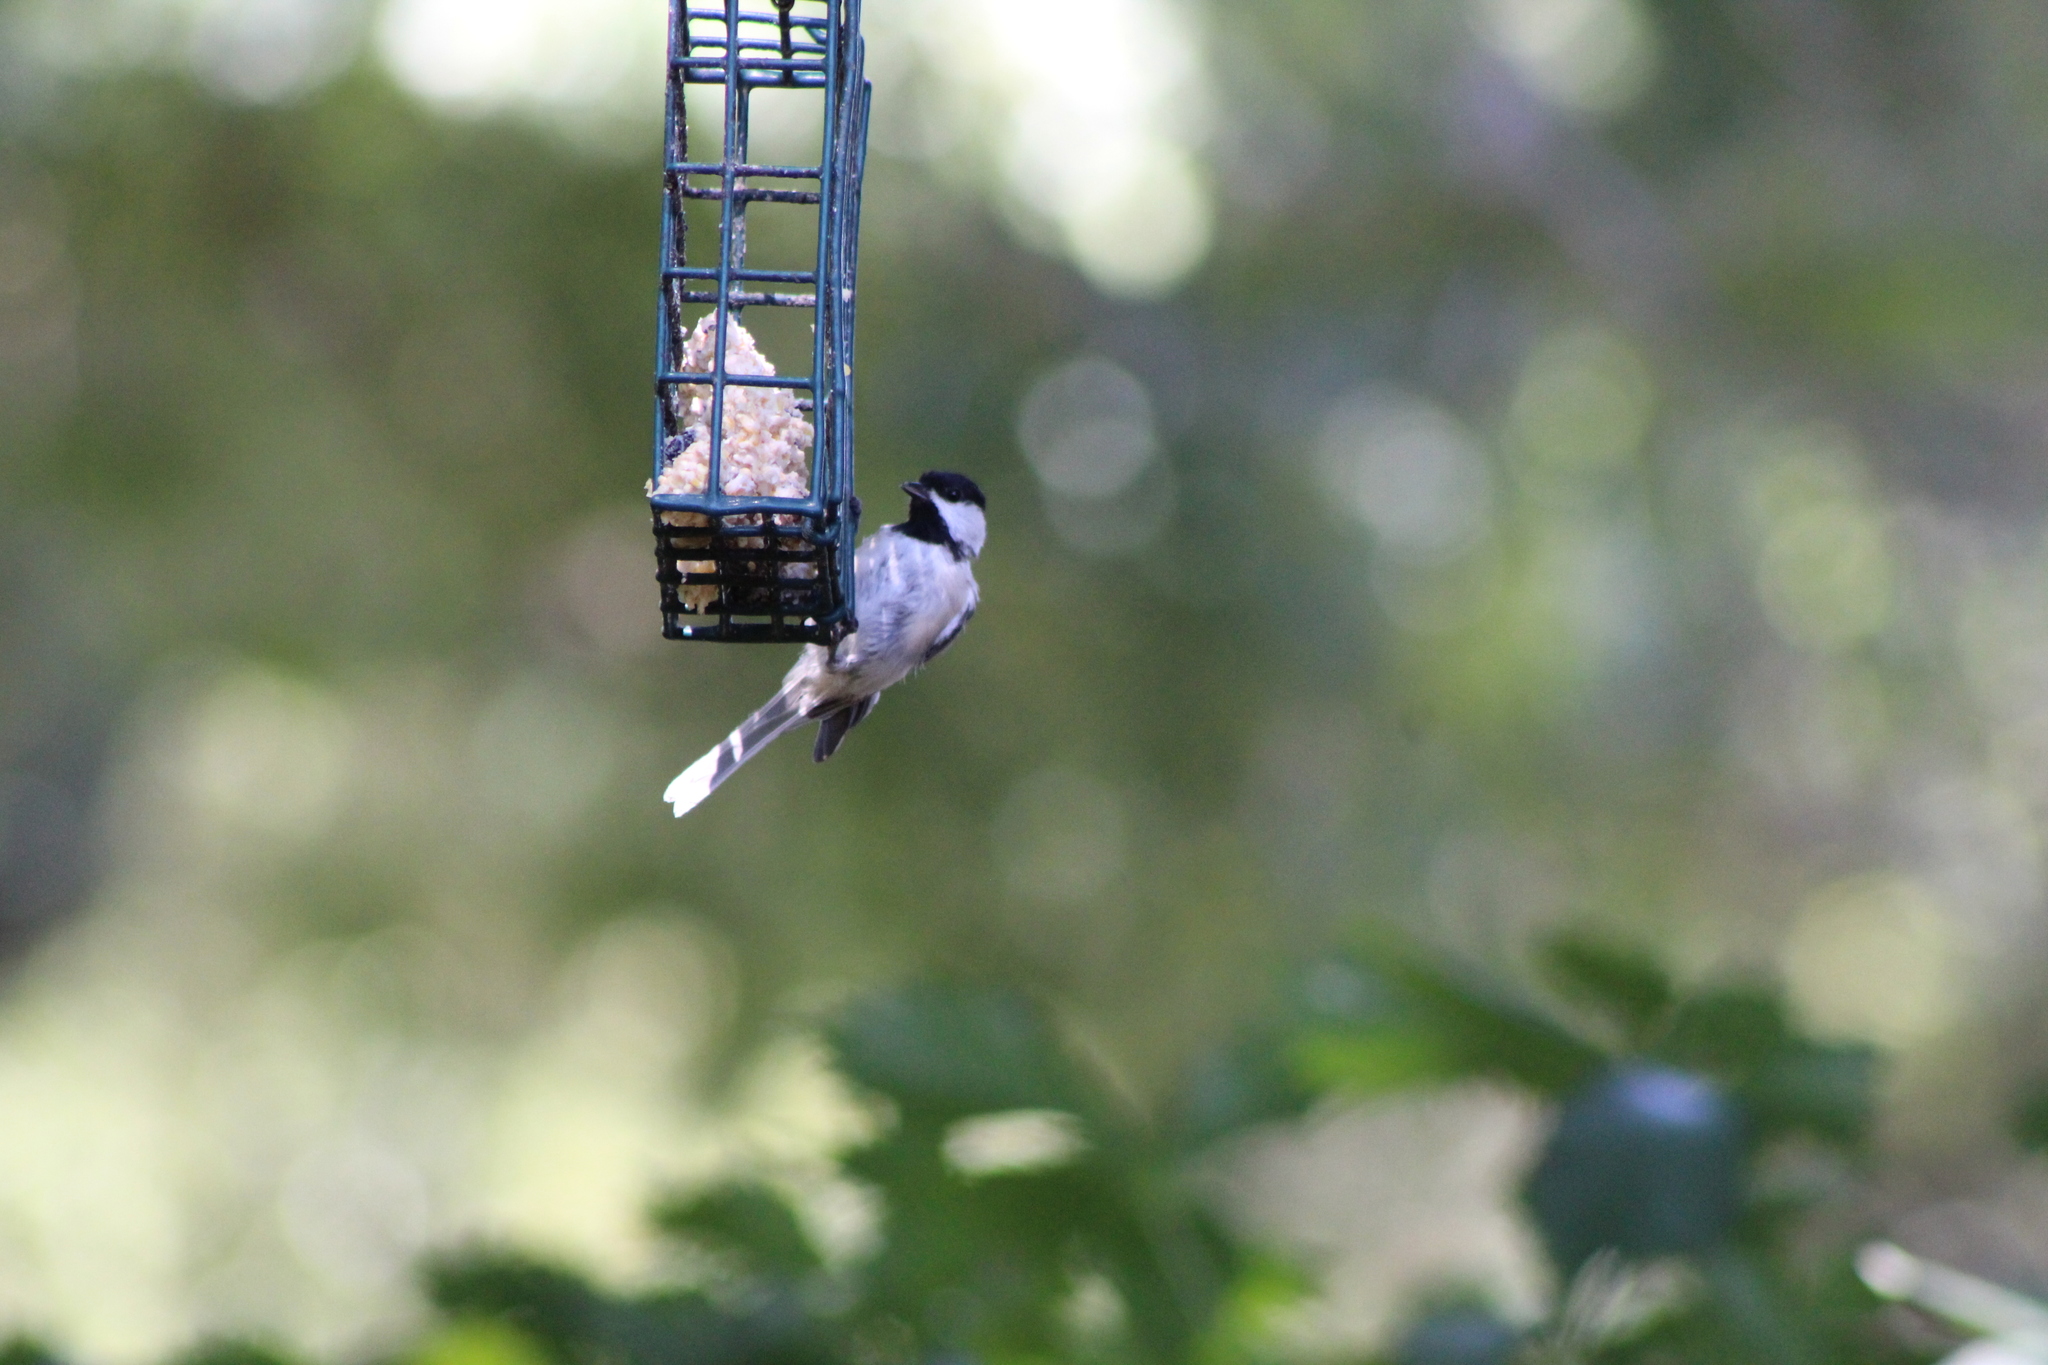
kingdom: Animalia
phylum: Chordata
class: Aves
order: Passeriformes
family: Paridae
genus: Poecile
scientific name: Poecile carolinensis
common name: Carolina chickadee
